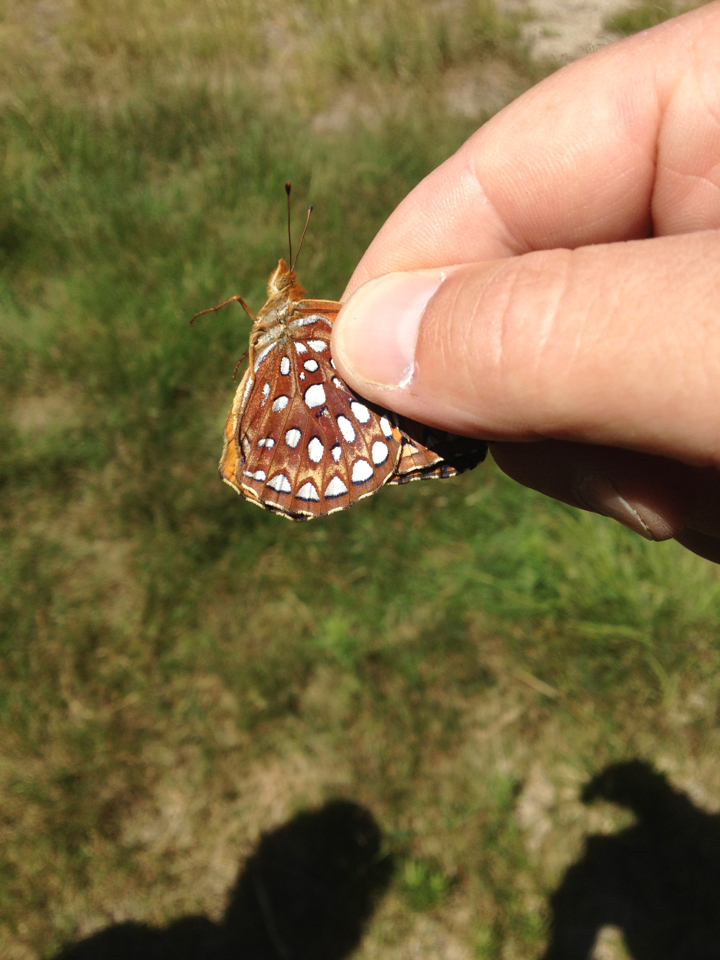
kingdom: Animalia
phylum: Arthropoda
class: Insecta
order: Lepidoptera
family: Nymphalidae
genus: Speyeria
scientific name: Speyeria aphrodite
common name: Aphrodite friitllary
